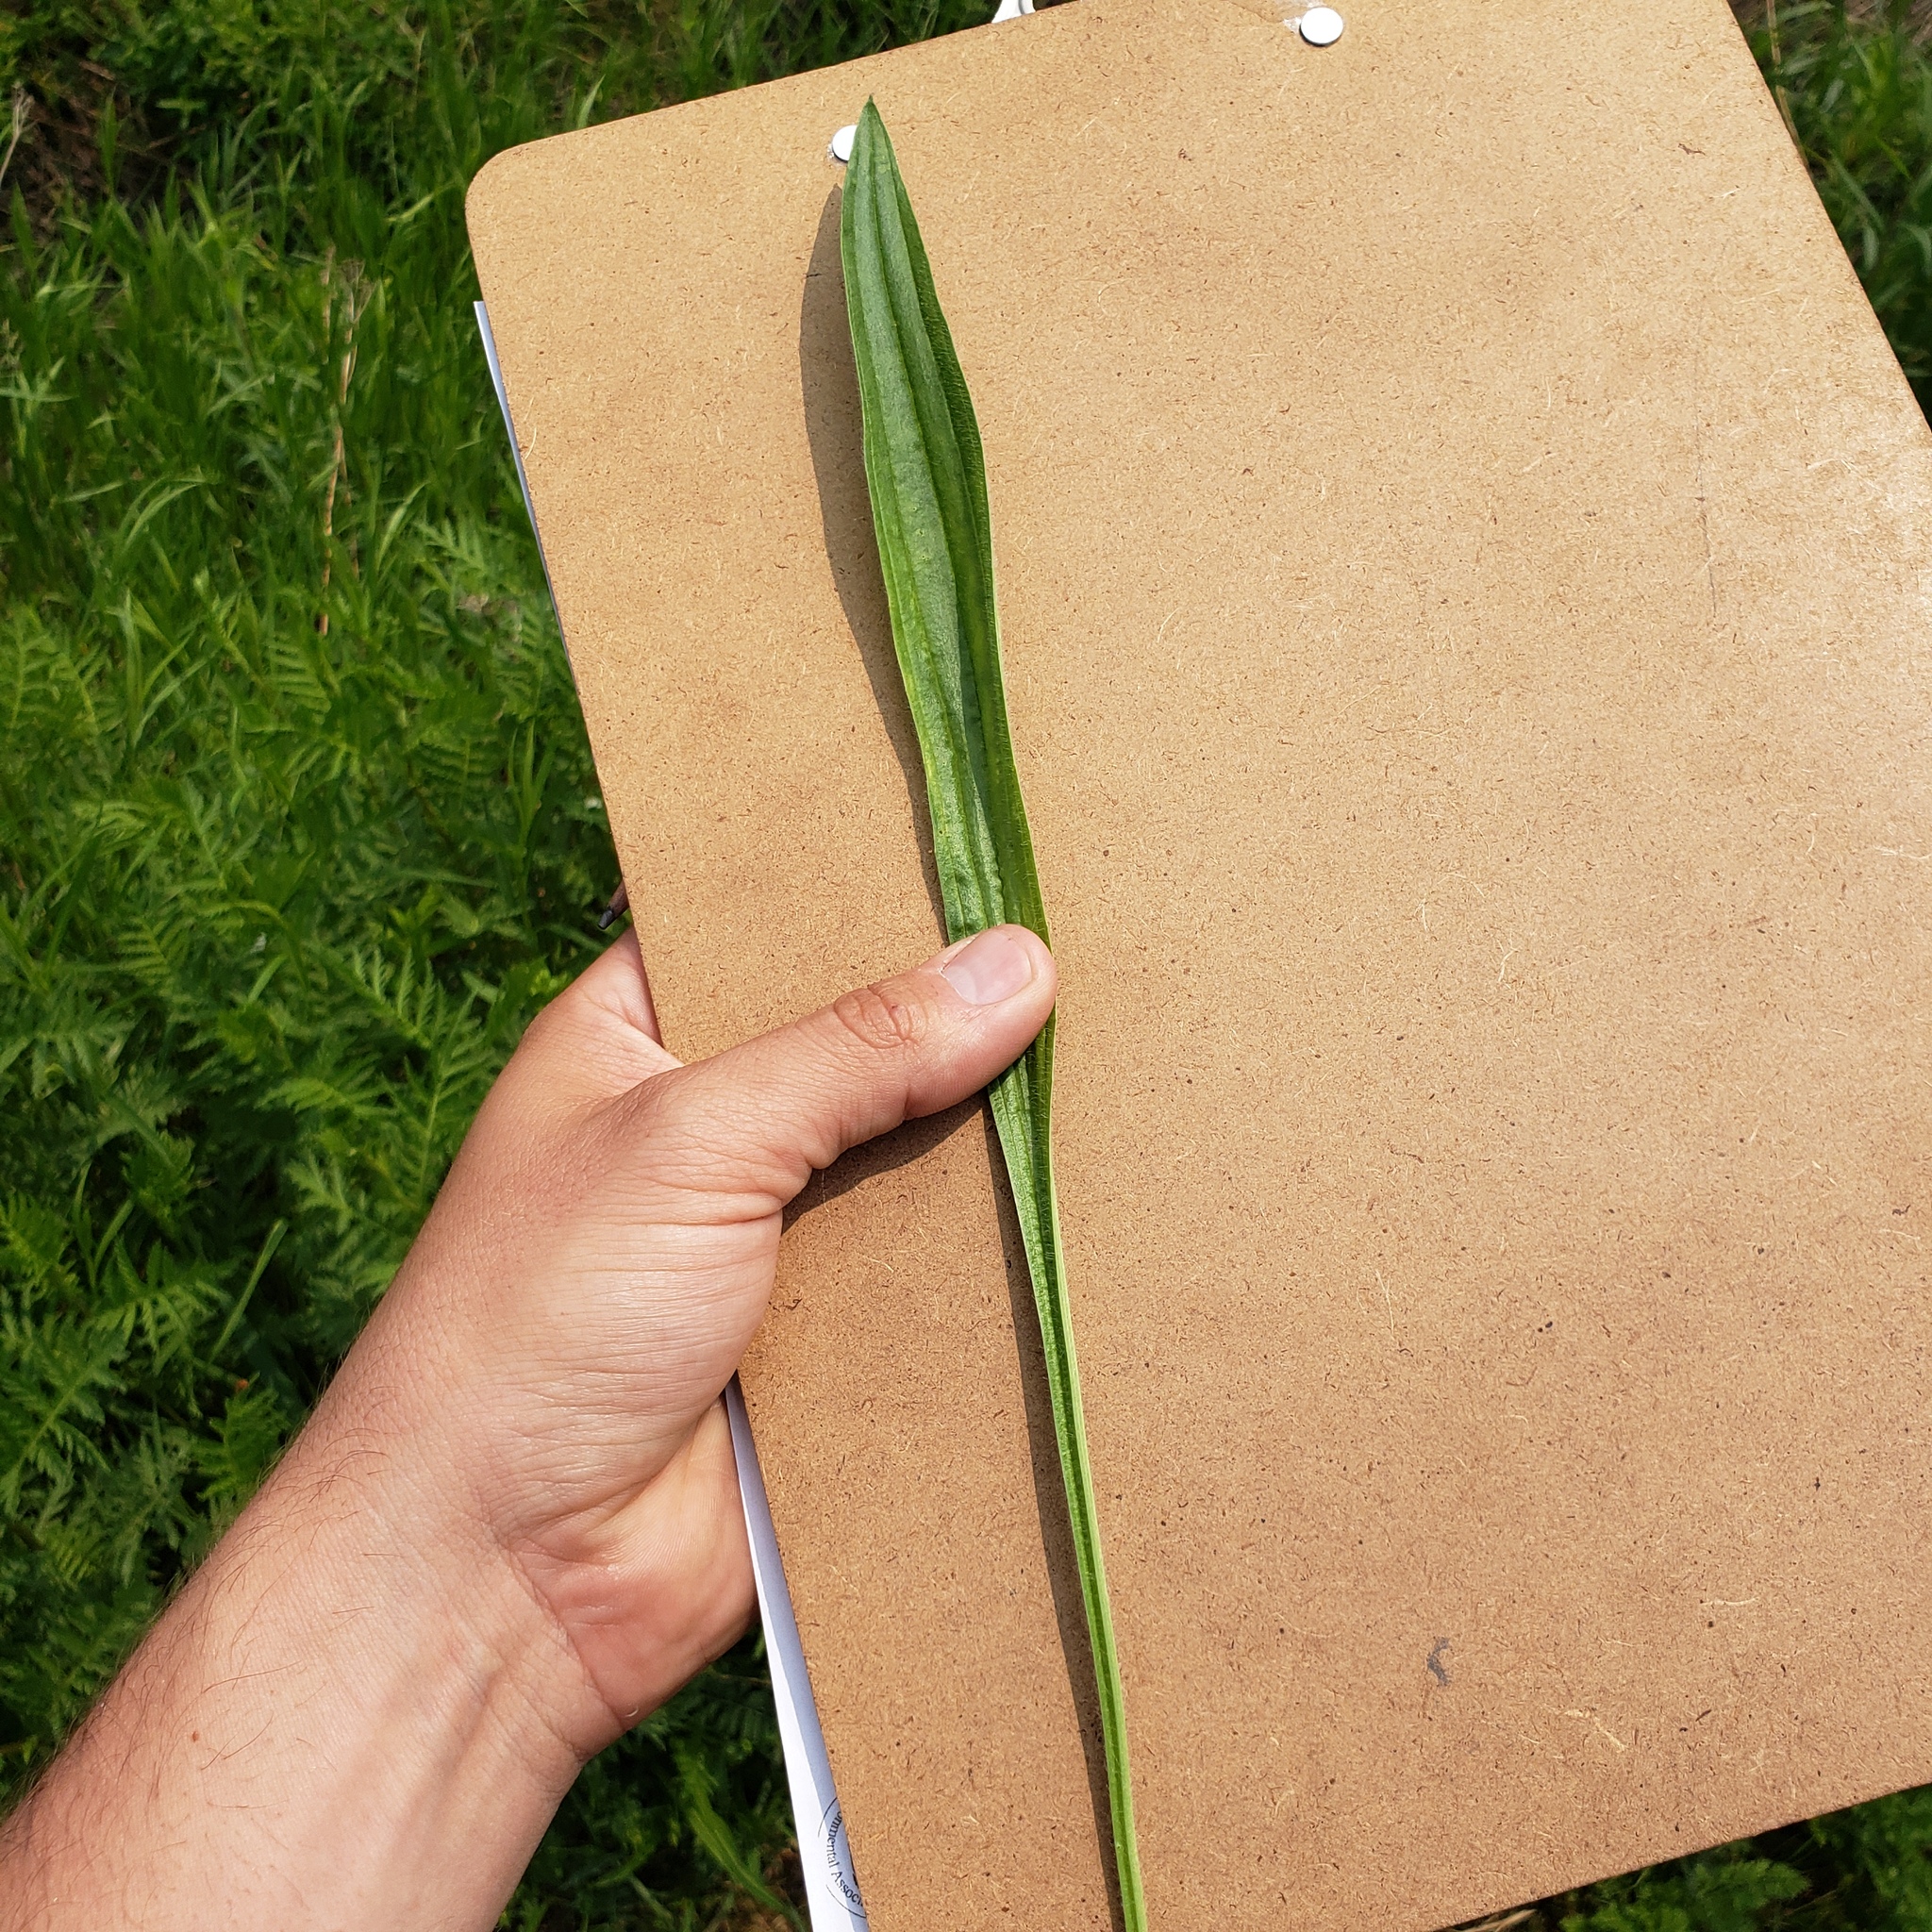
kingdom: Plantae
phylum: Tracheophyta
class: Magnoliopsida
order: Lamiales
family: Plantaginaceae
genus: Plantago
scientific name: Plantago lanceolata
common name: Ribwort plantain
